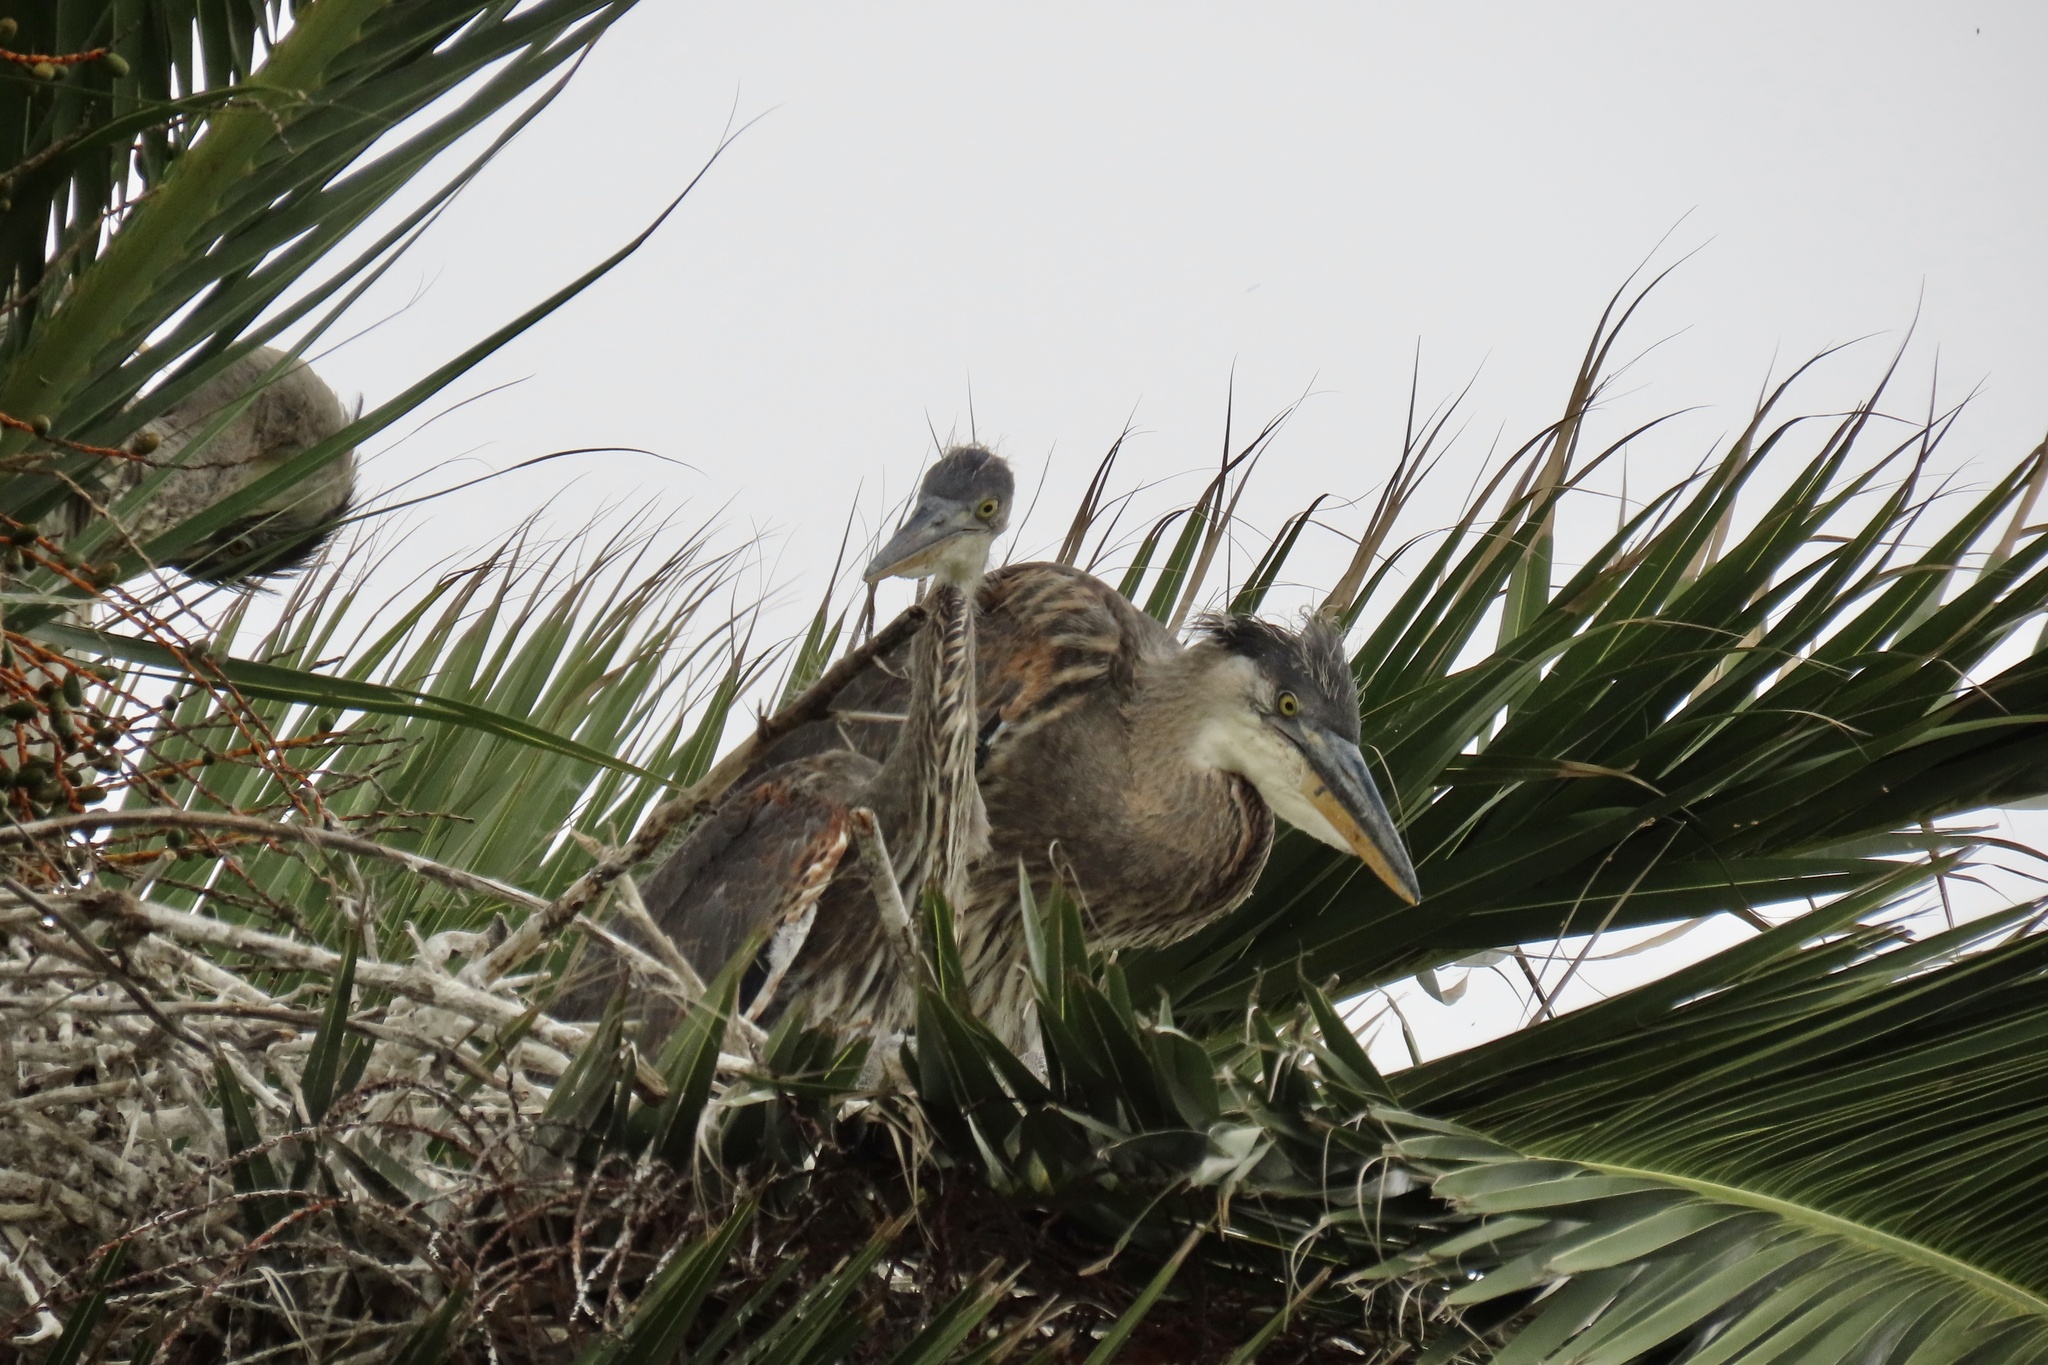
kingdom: Animalia
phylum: Chordata
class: Aves
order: Pelecaniformes
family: Ardeidae
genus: Ardea
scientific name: Ardea herodias
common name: Great blue heron
